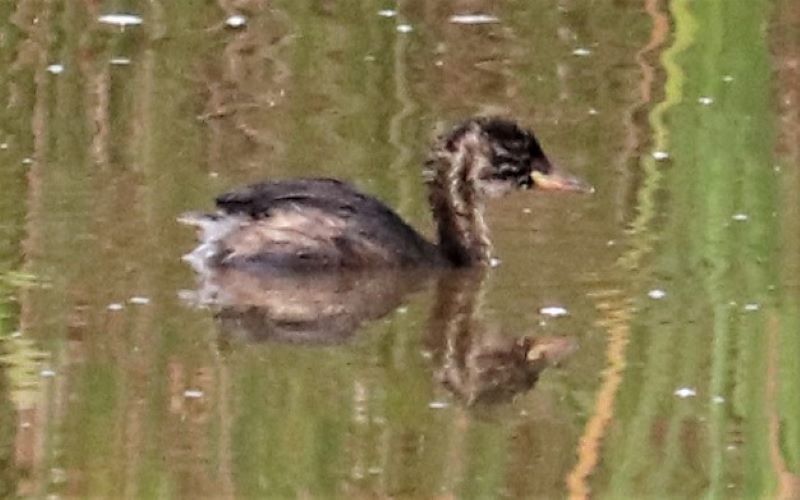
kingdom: Animalia
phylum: Chordata
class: Aves
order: Podicipediformes
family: Podicipedidae
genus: Tachybaptus
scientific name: Tachybaptus ruficollis
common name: Little grebe
